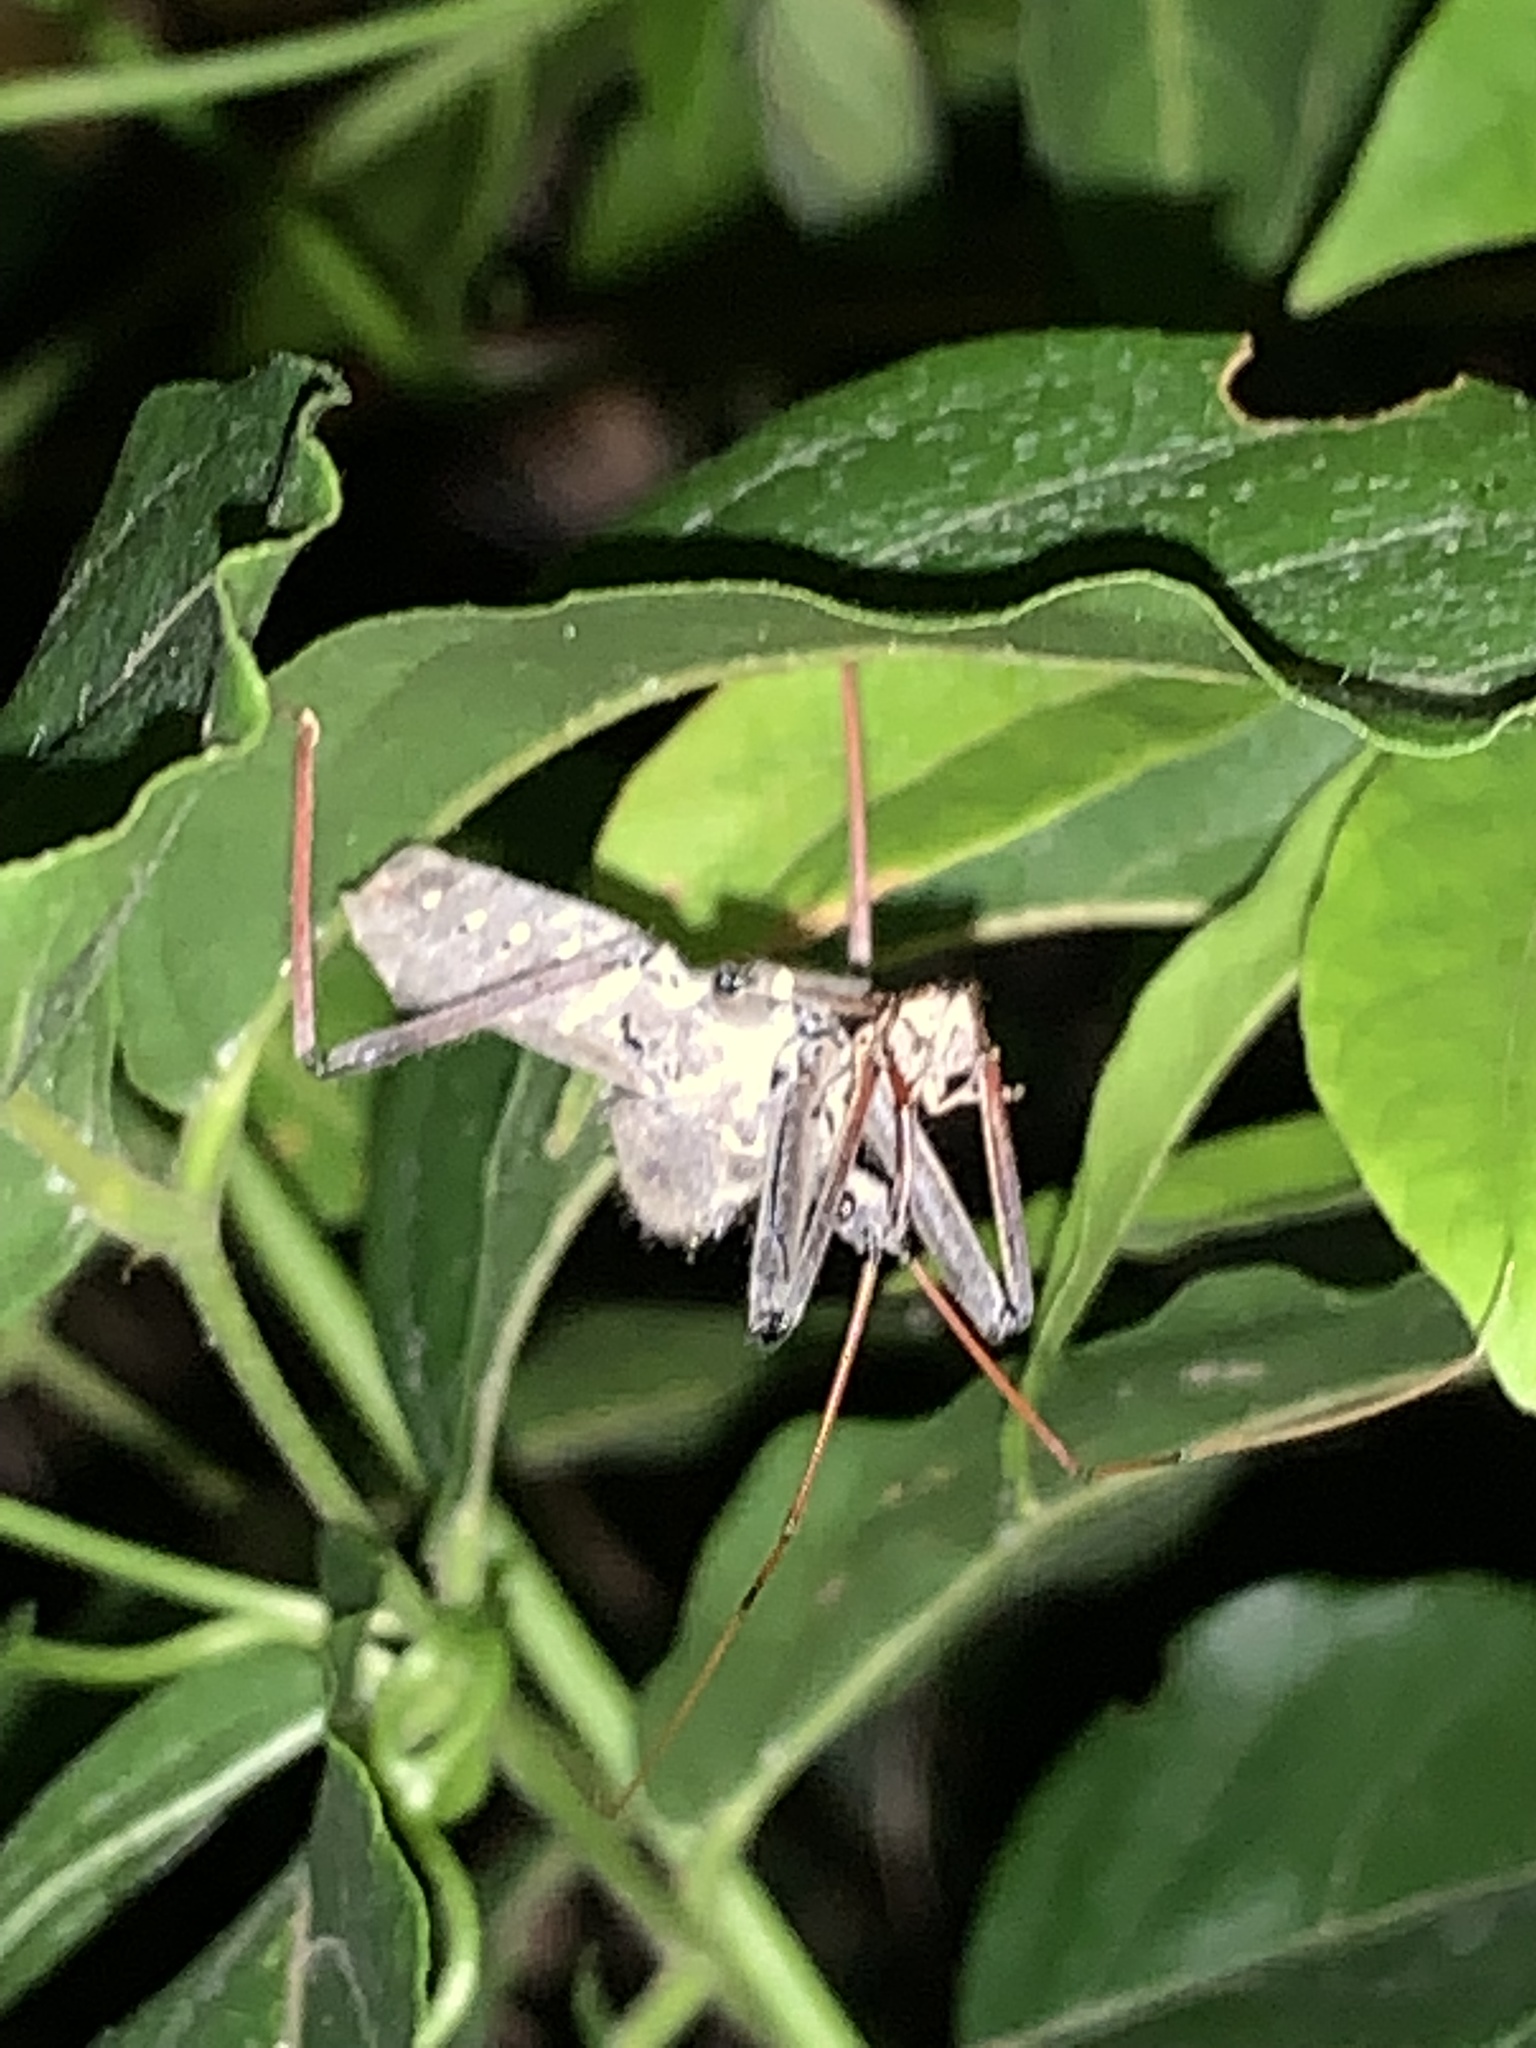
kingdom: Animalia
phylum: Arthropoda
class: Insecta
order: Hemiptera
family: Reduviidae
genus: Arilus
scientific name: Arilus cristatus
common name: North american wheel bug
